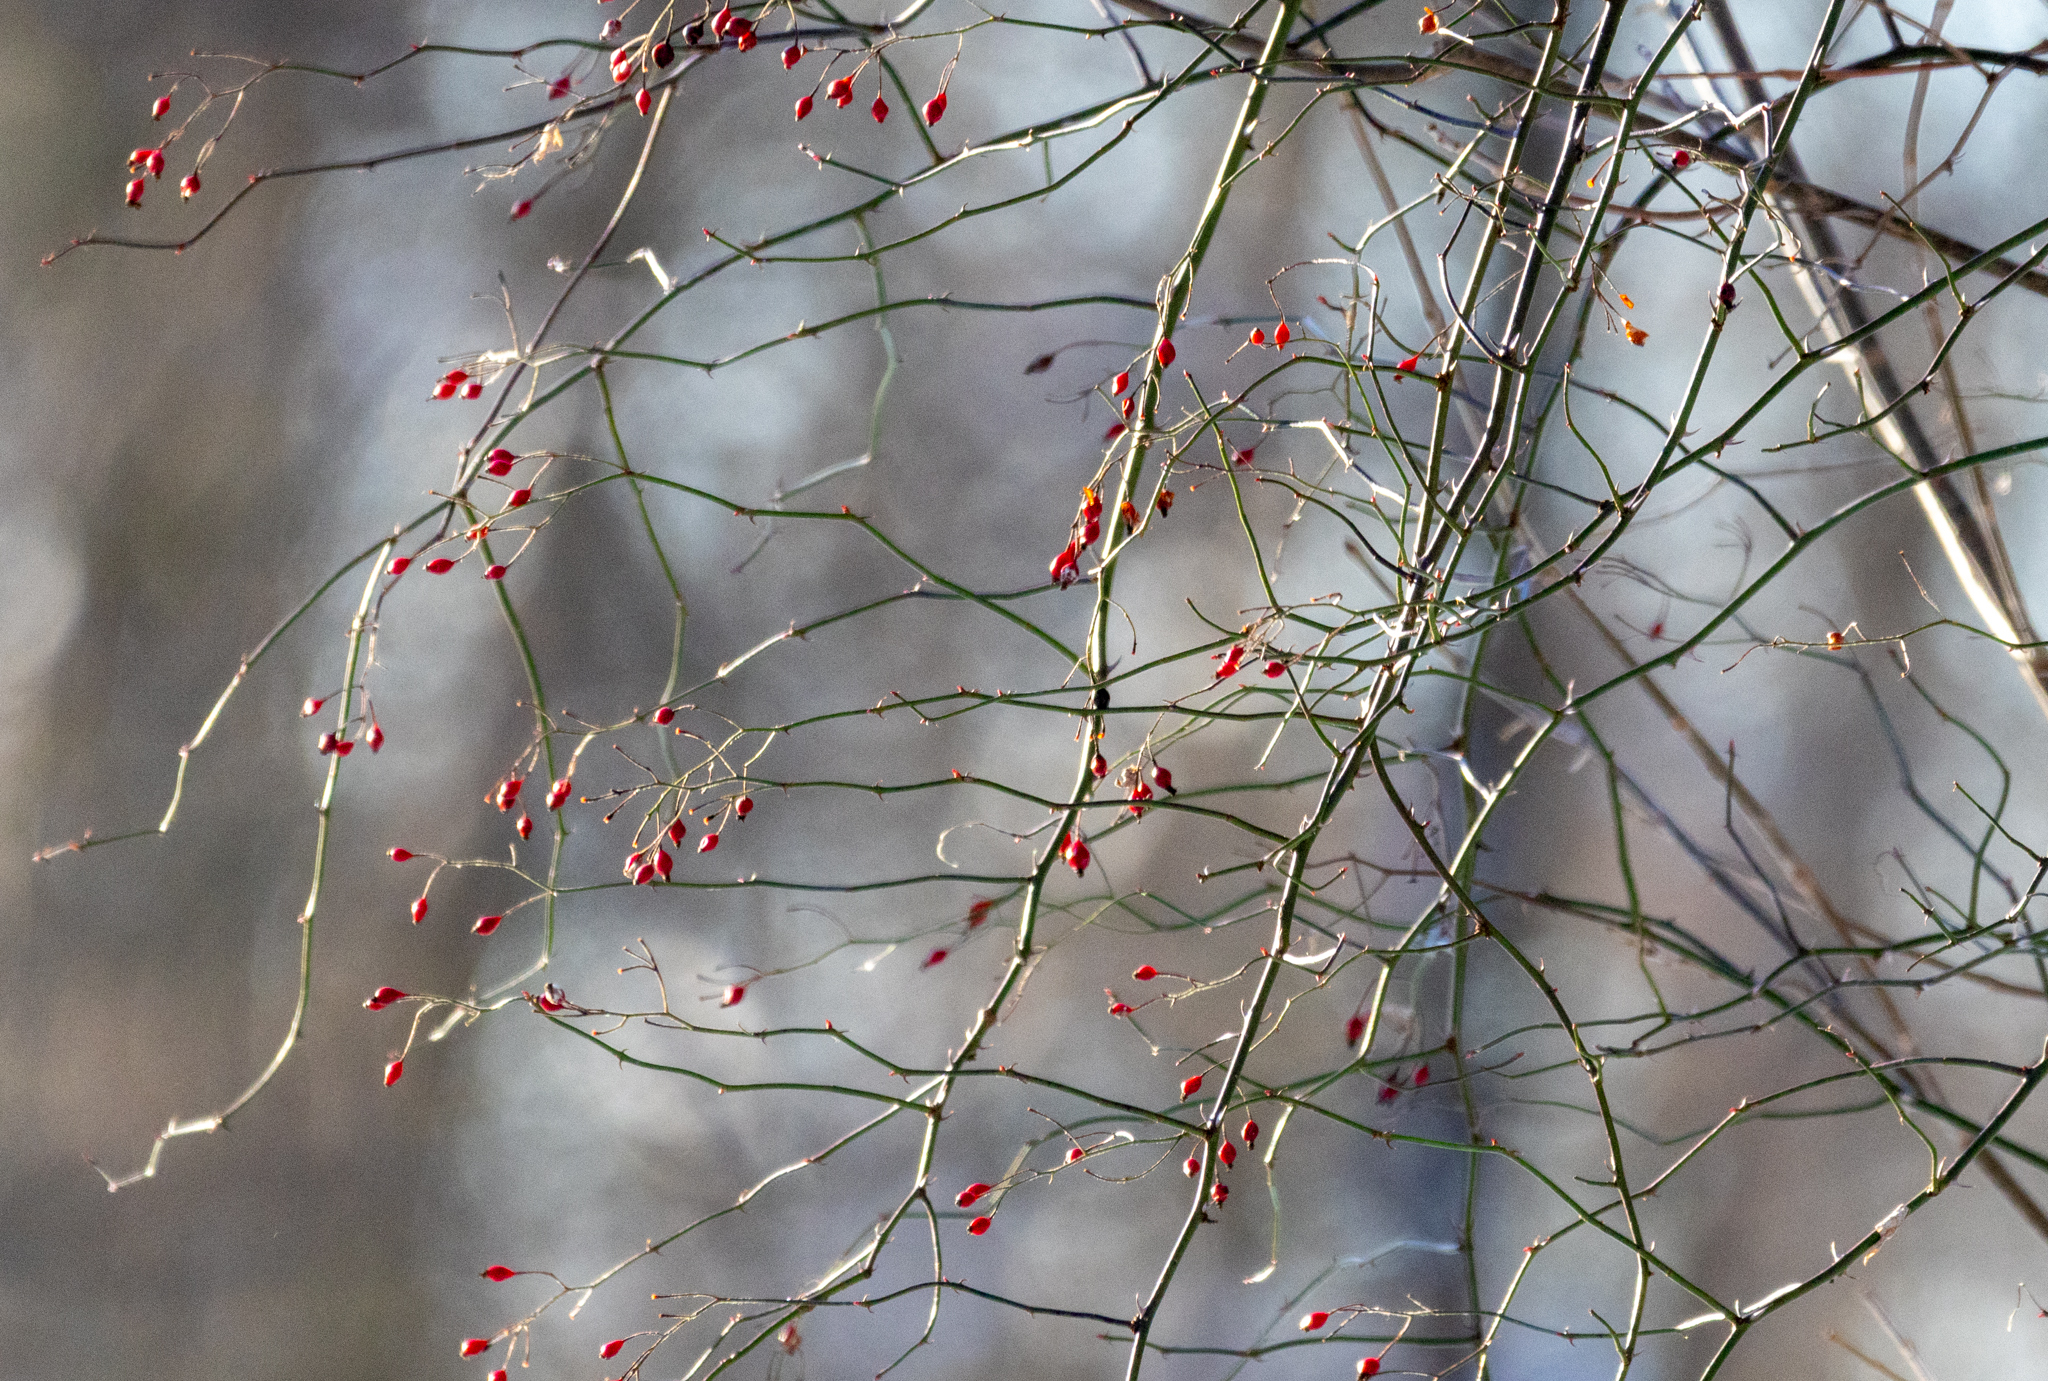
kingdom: Plantae
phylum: Tracheophyta
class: Magnoliopsida
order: Rosales
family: Rosaceae
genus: Rosa
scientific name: Rosa multiflora
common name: Multiflora rose
